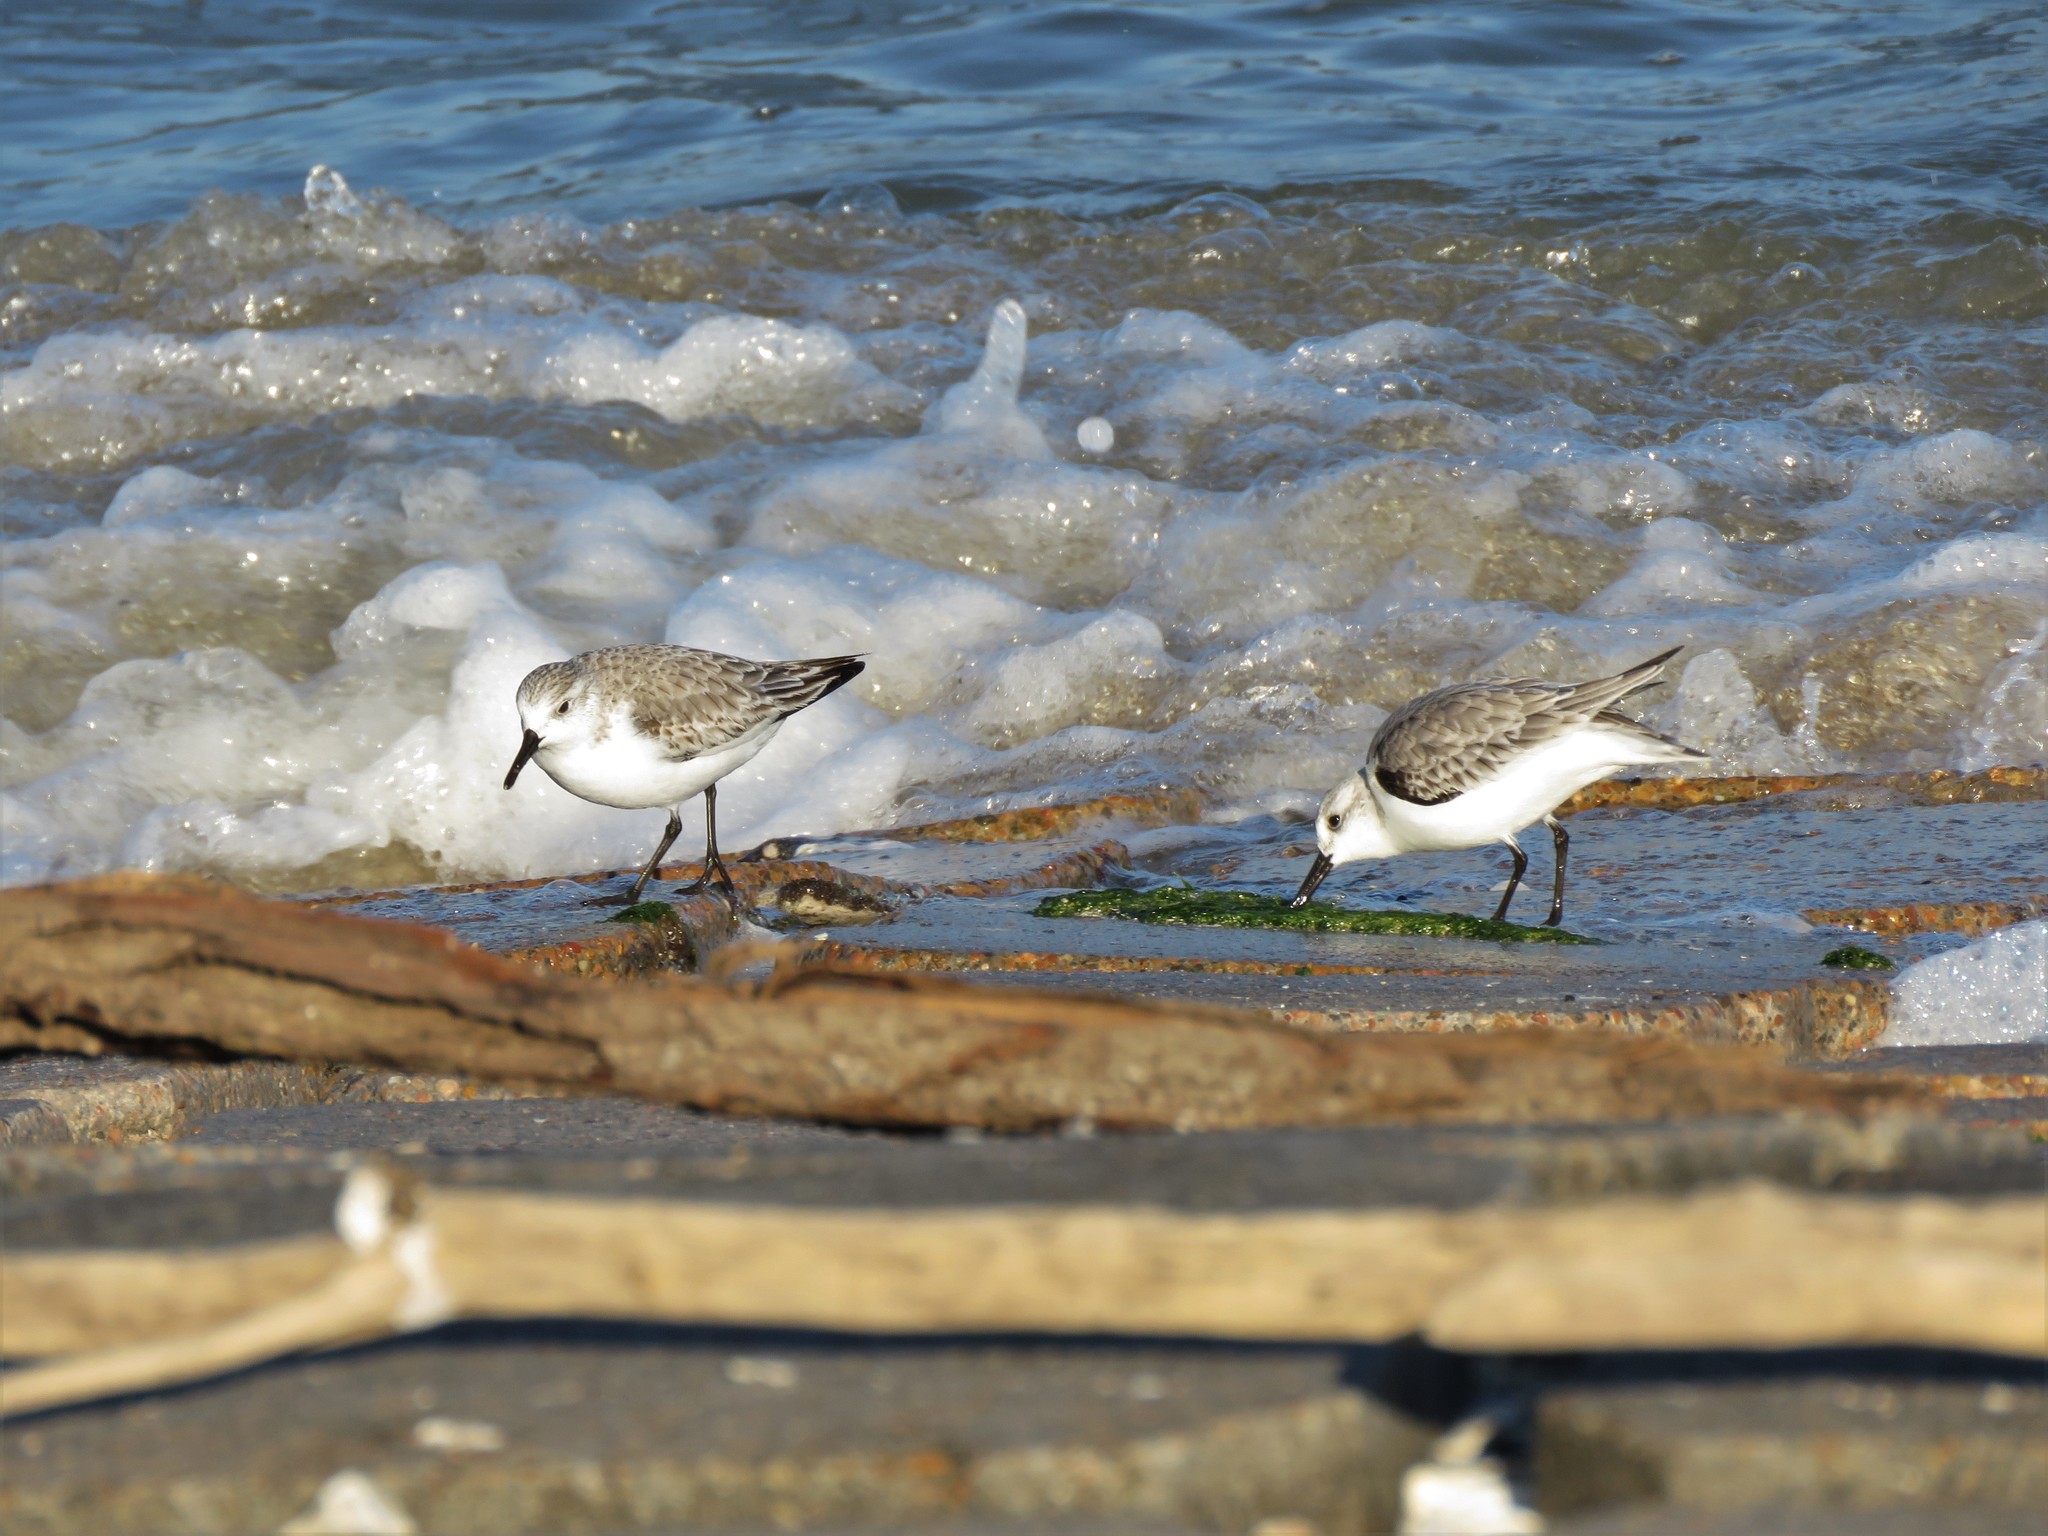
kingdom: Animalia
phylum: Chordata
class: Aves
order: Charadriiformes
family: Scolopacidae
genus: Calidris
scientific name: Calidris alba
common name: Sanderling
